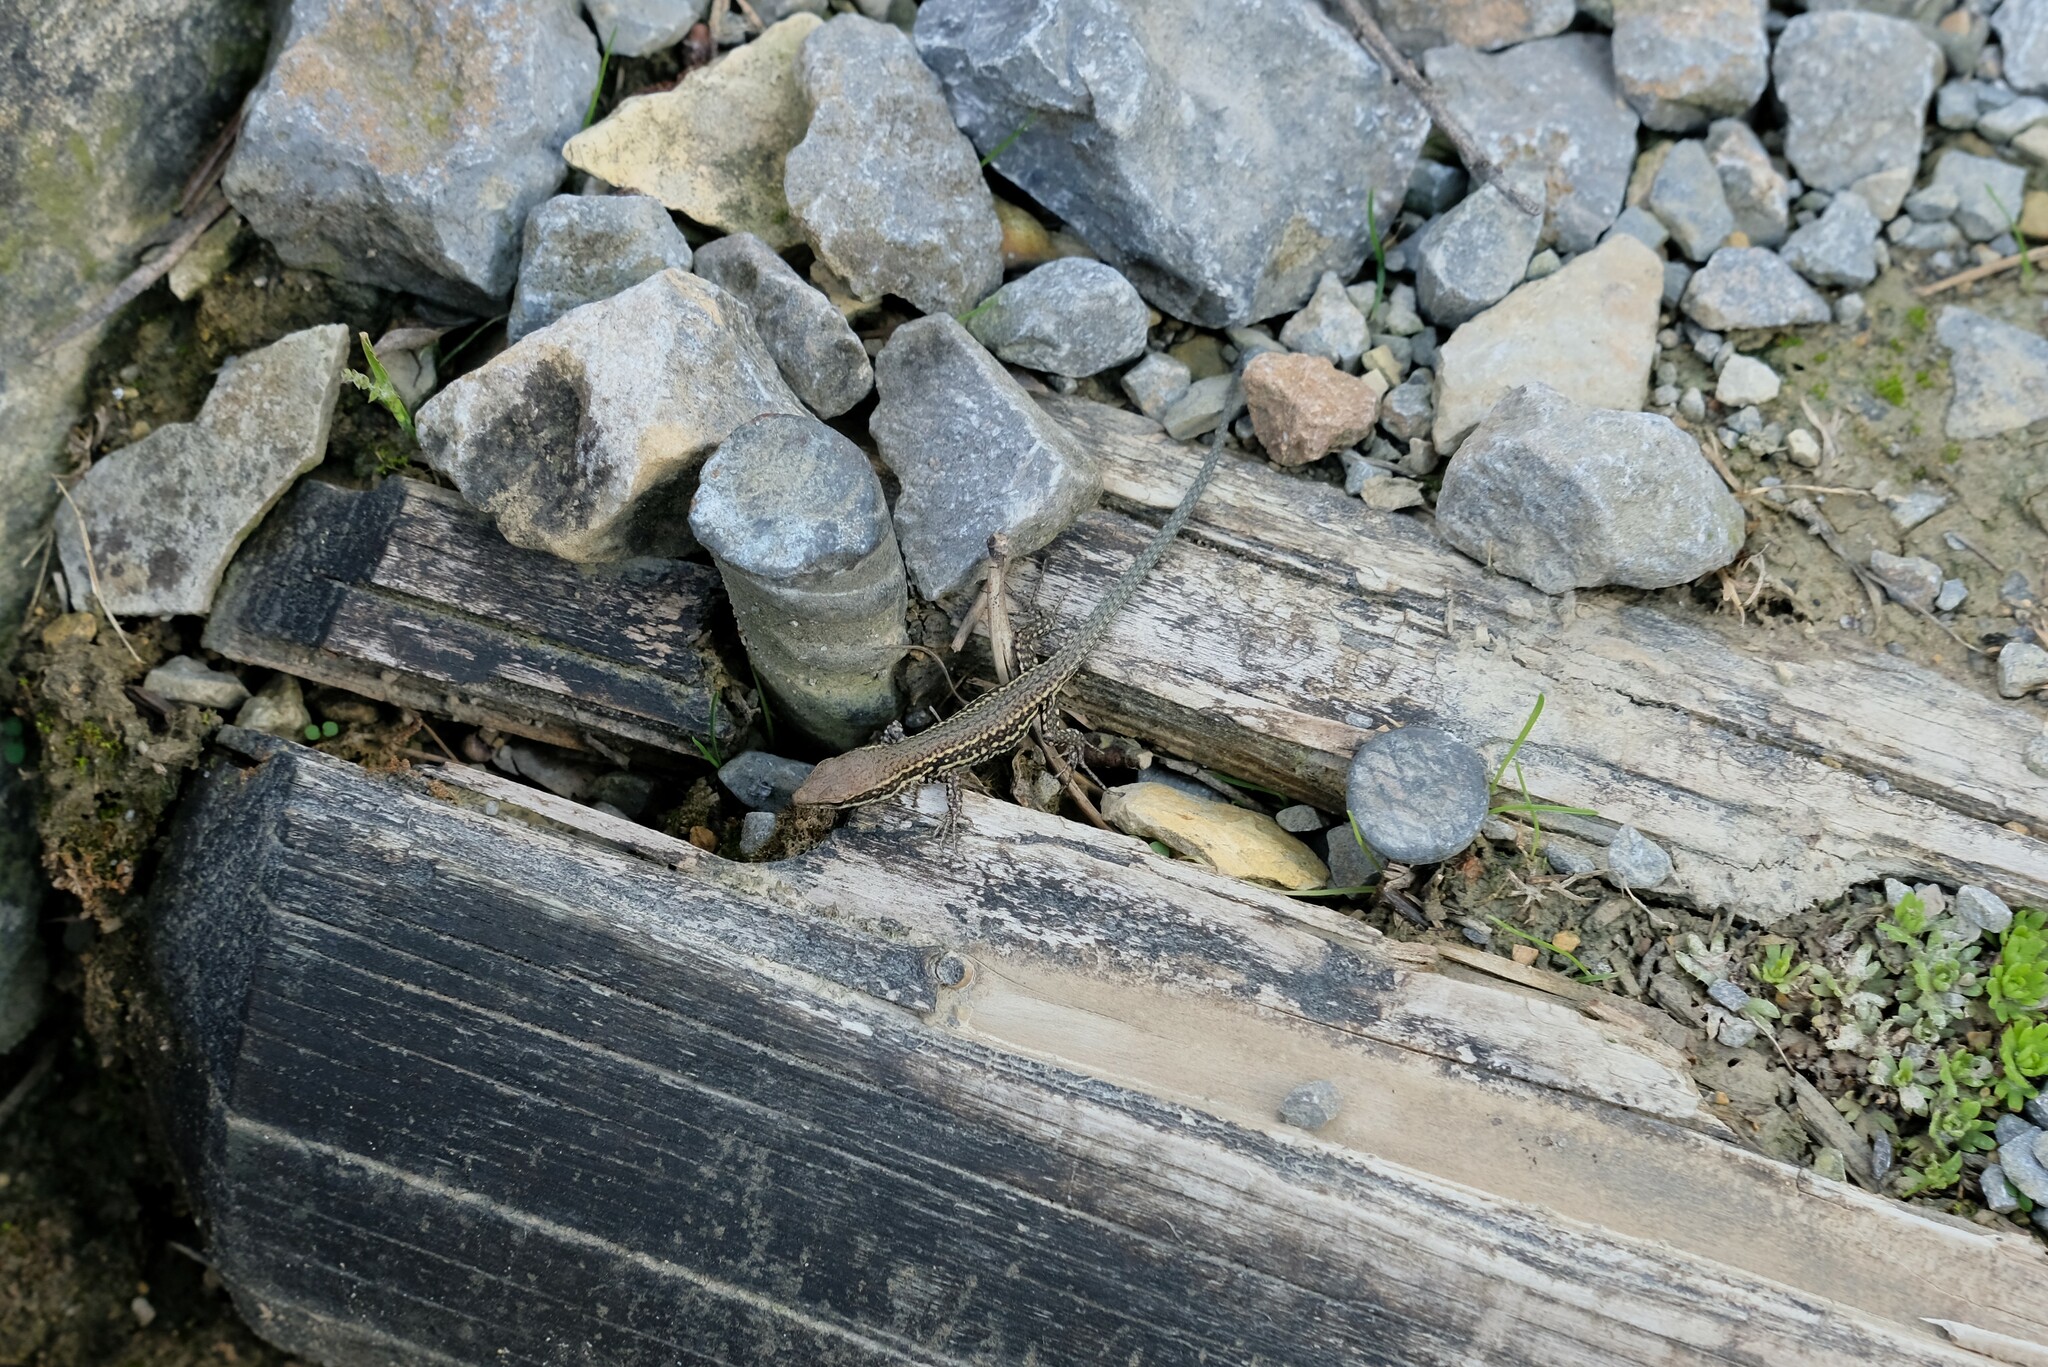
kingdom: Animalia
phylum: Chordata
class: Squamata
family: Lacertidae
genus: Podarcis
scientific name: Podarcis muralis
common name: Common wall lizard
